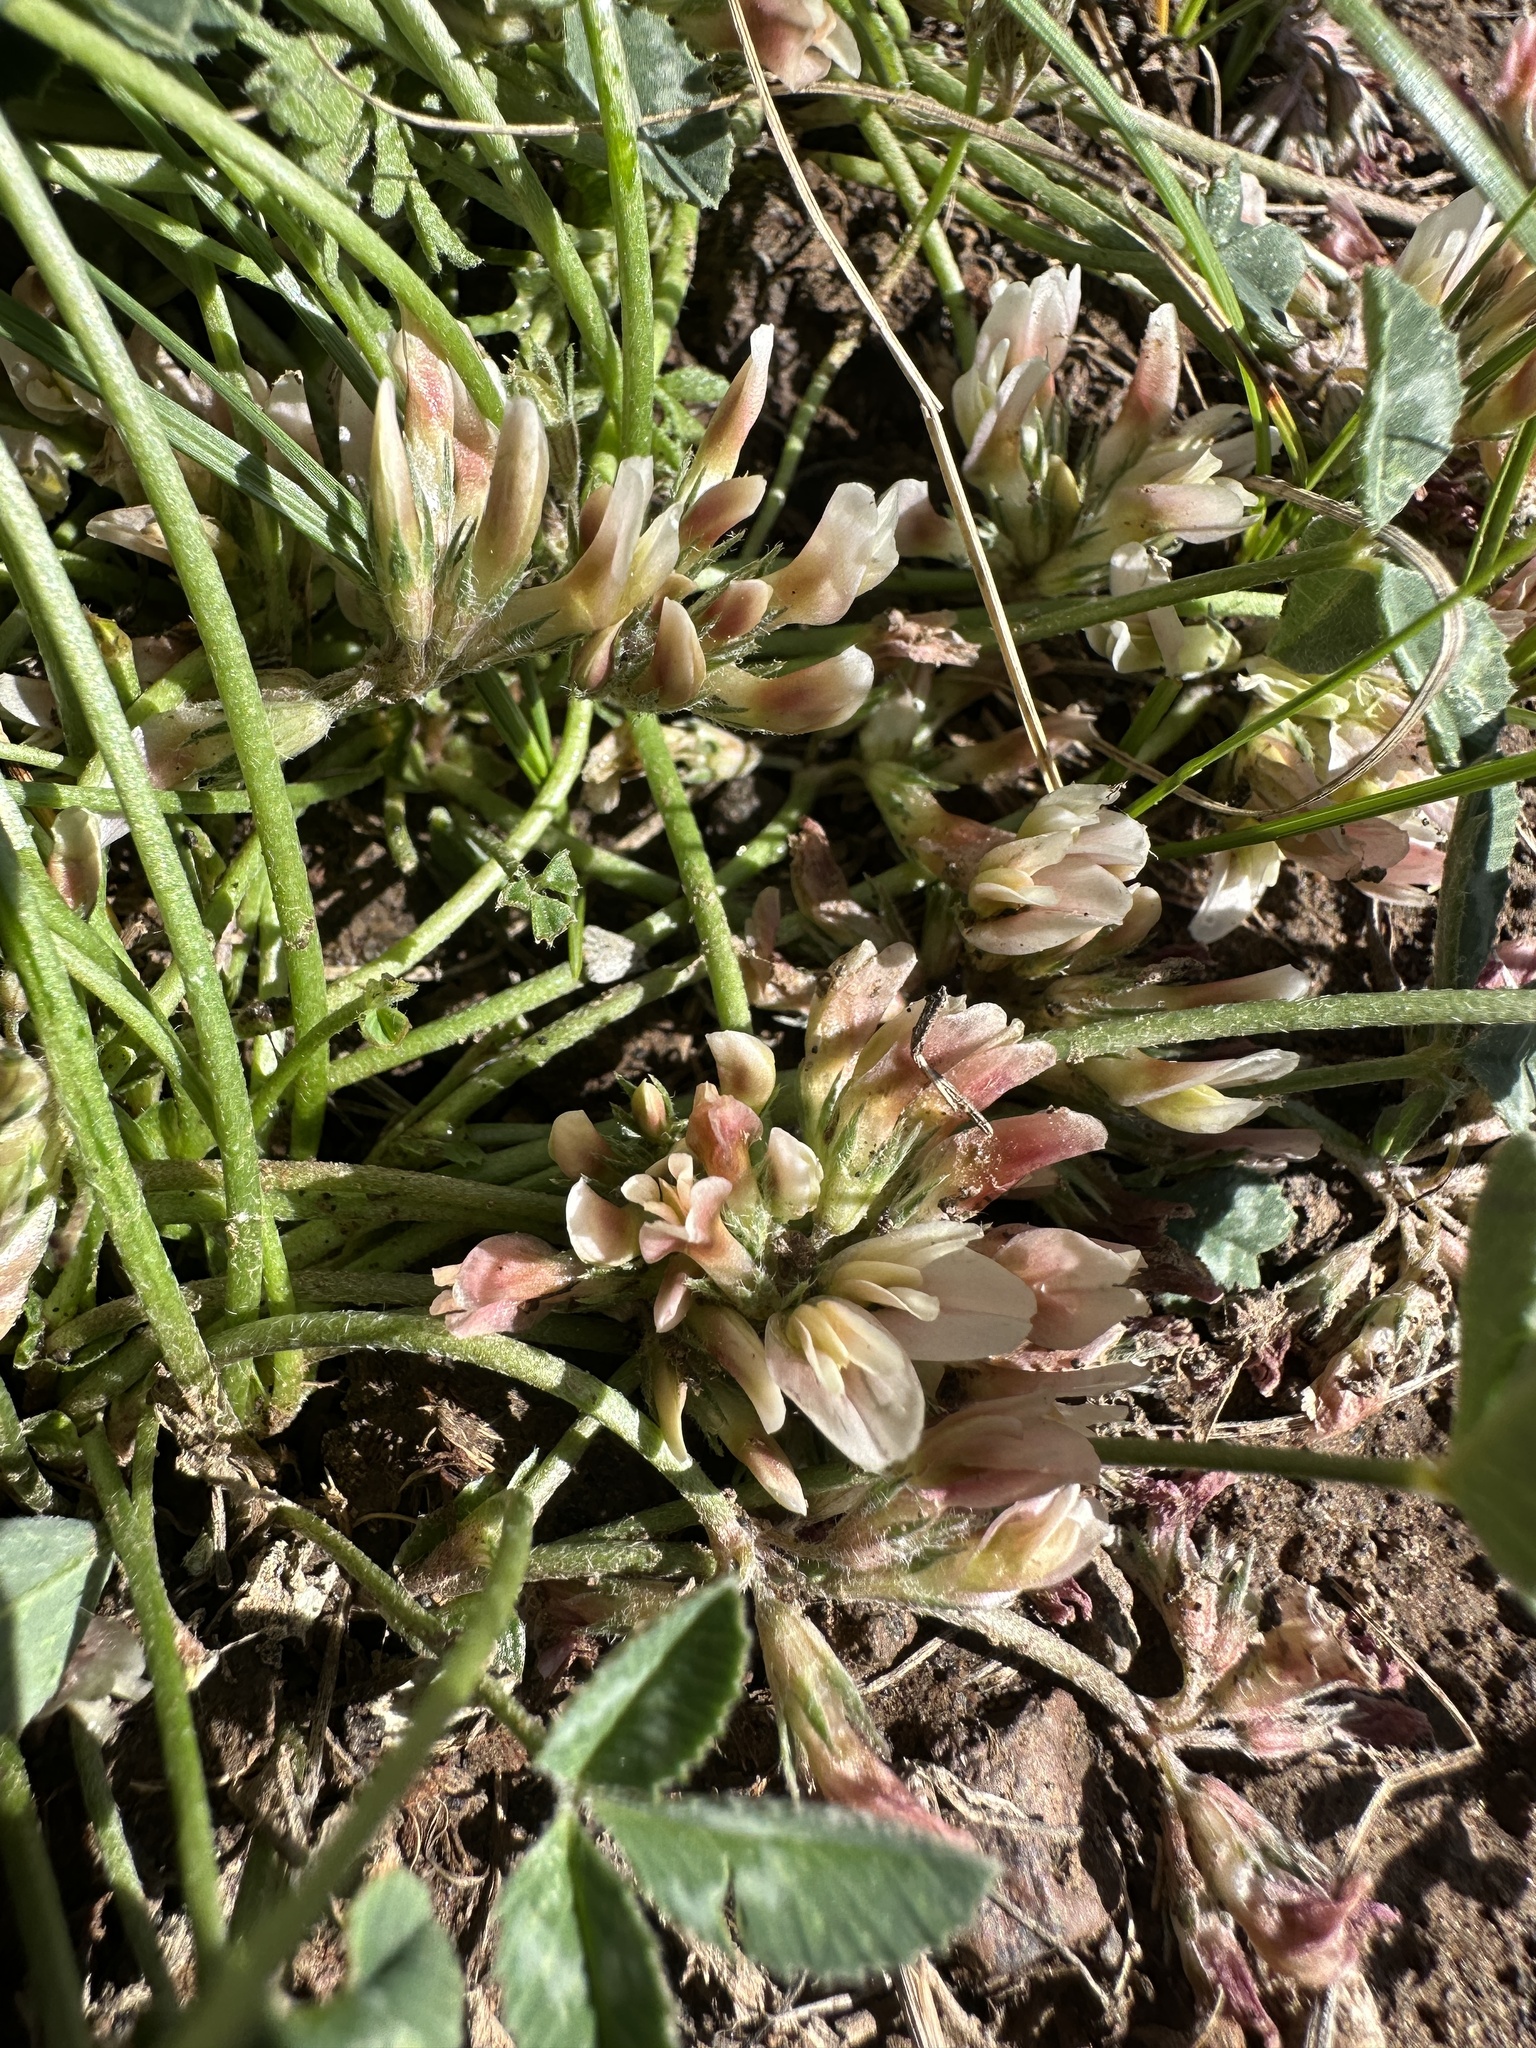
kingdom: Plantae
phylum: Tracheophyta
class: Magnoliopsida
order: Fabales
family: Fabaceae
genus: Trifolium
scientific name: Trifolium gymnocarpon
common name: Tufted clover
